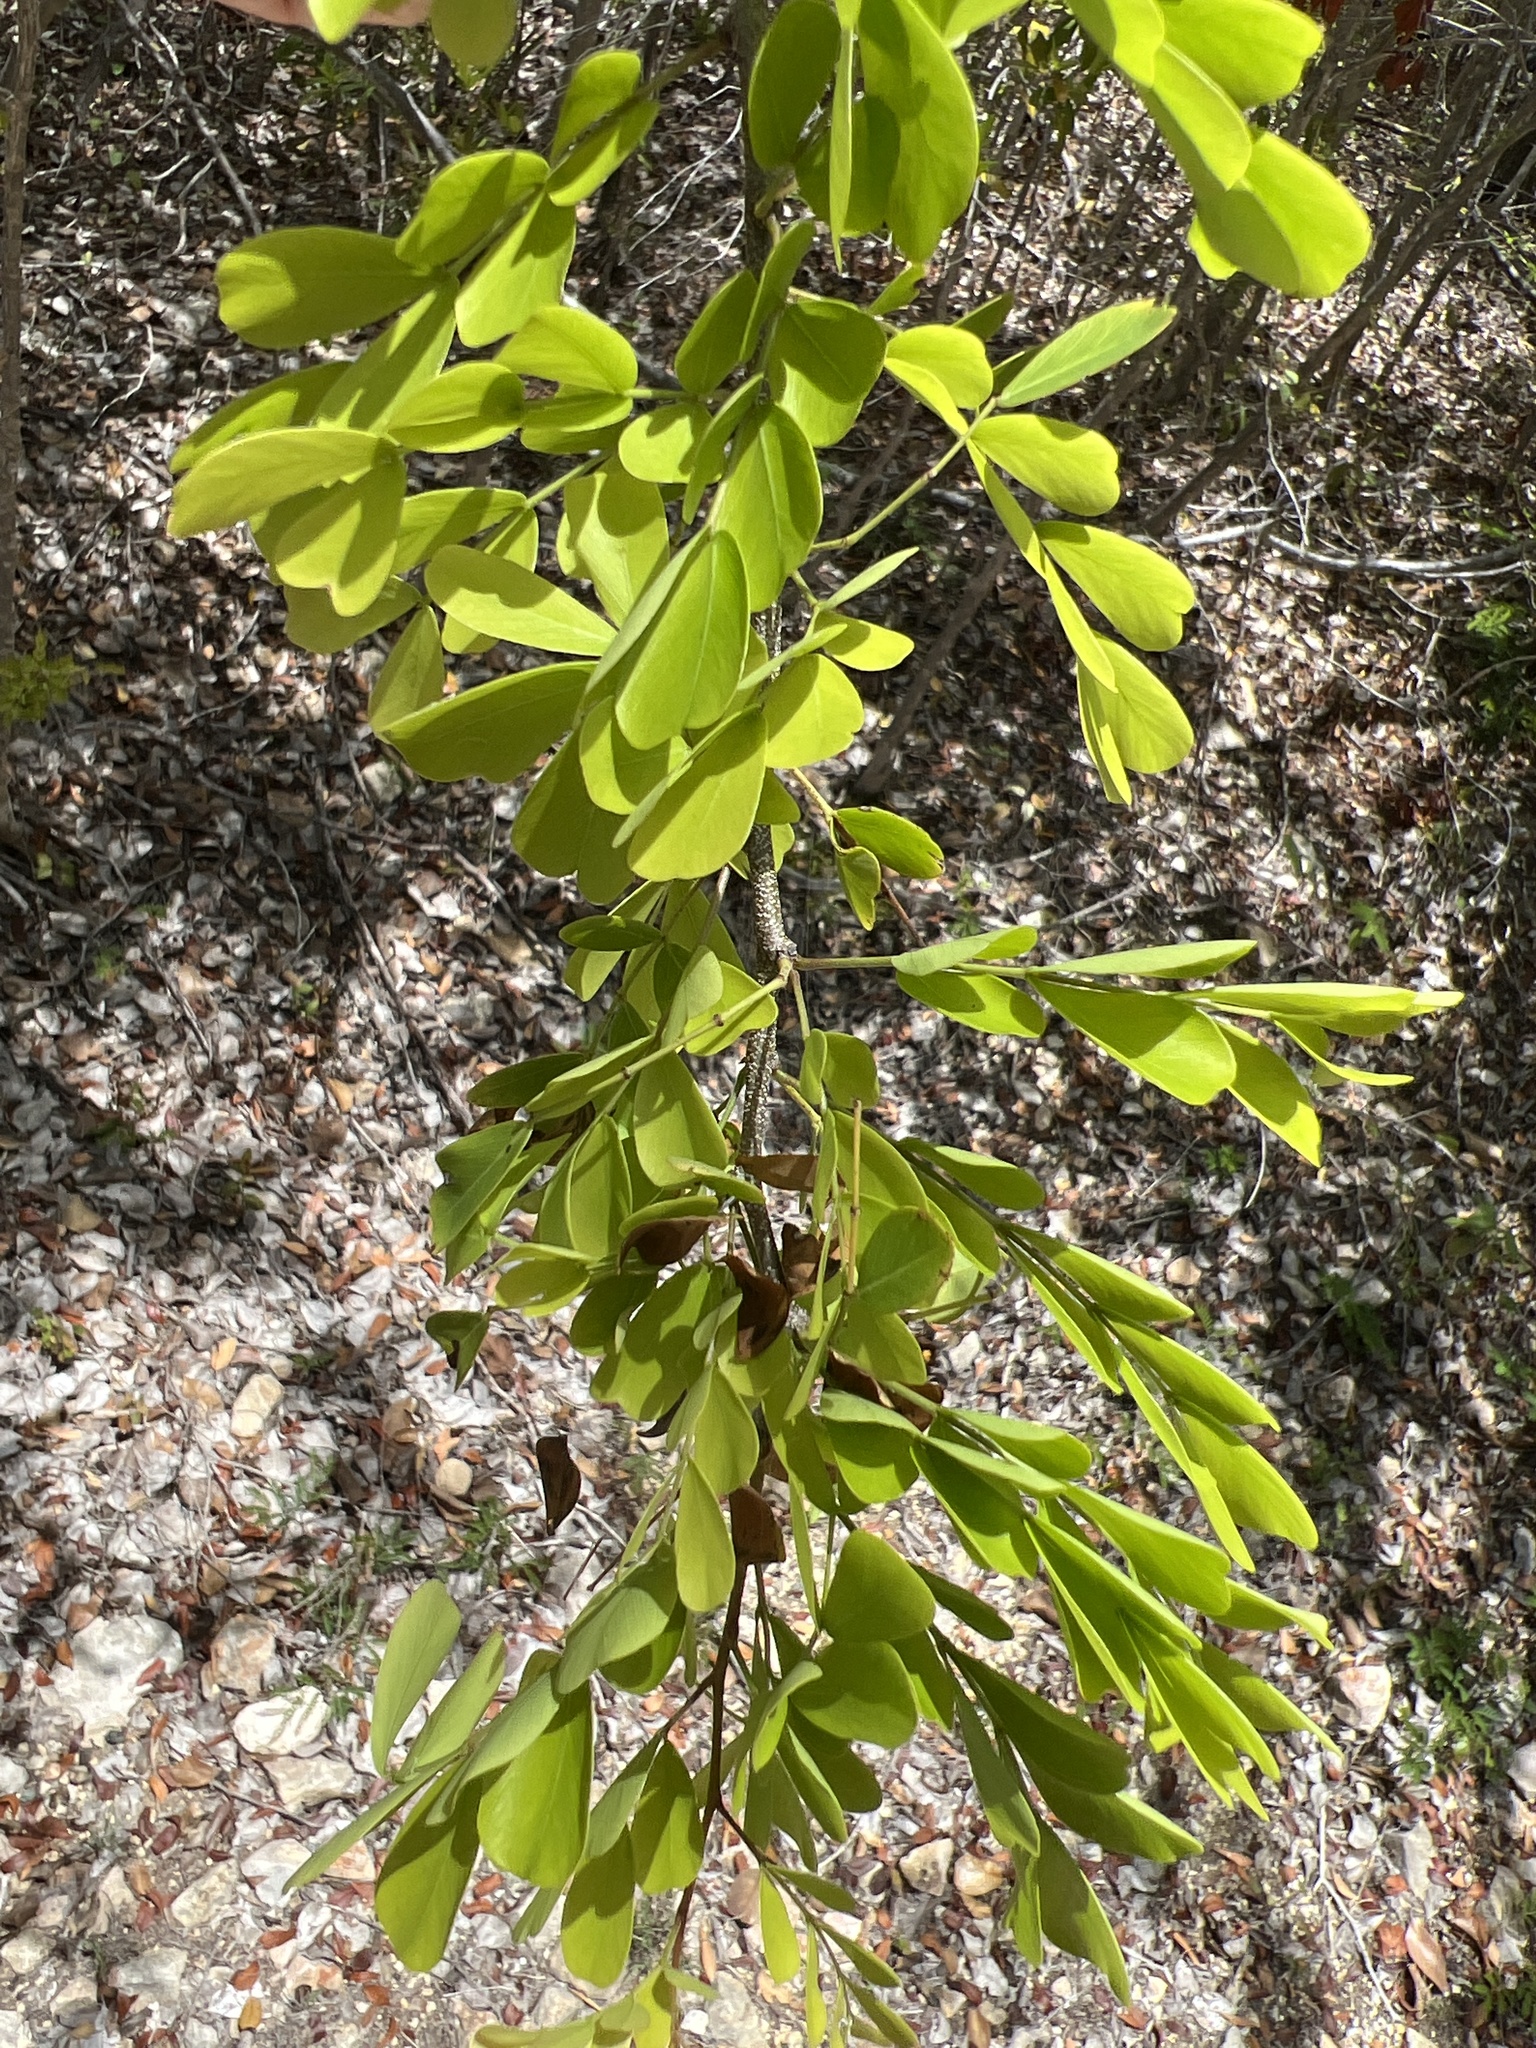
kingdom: Plantae
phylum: Tracheophyta
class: Magnoliopsida
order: Fabales
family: Fabaceae
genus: Haematoxylum
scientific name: Haematoxylum campechianum
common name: Logwood
